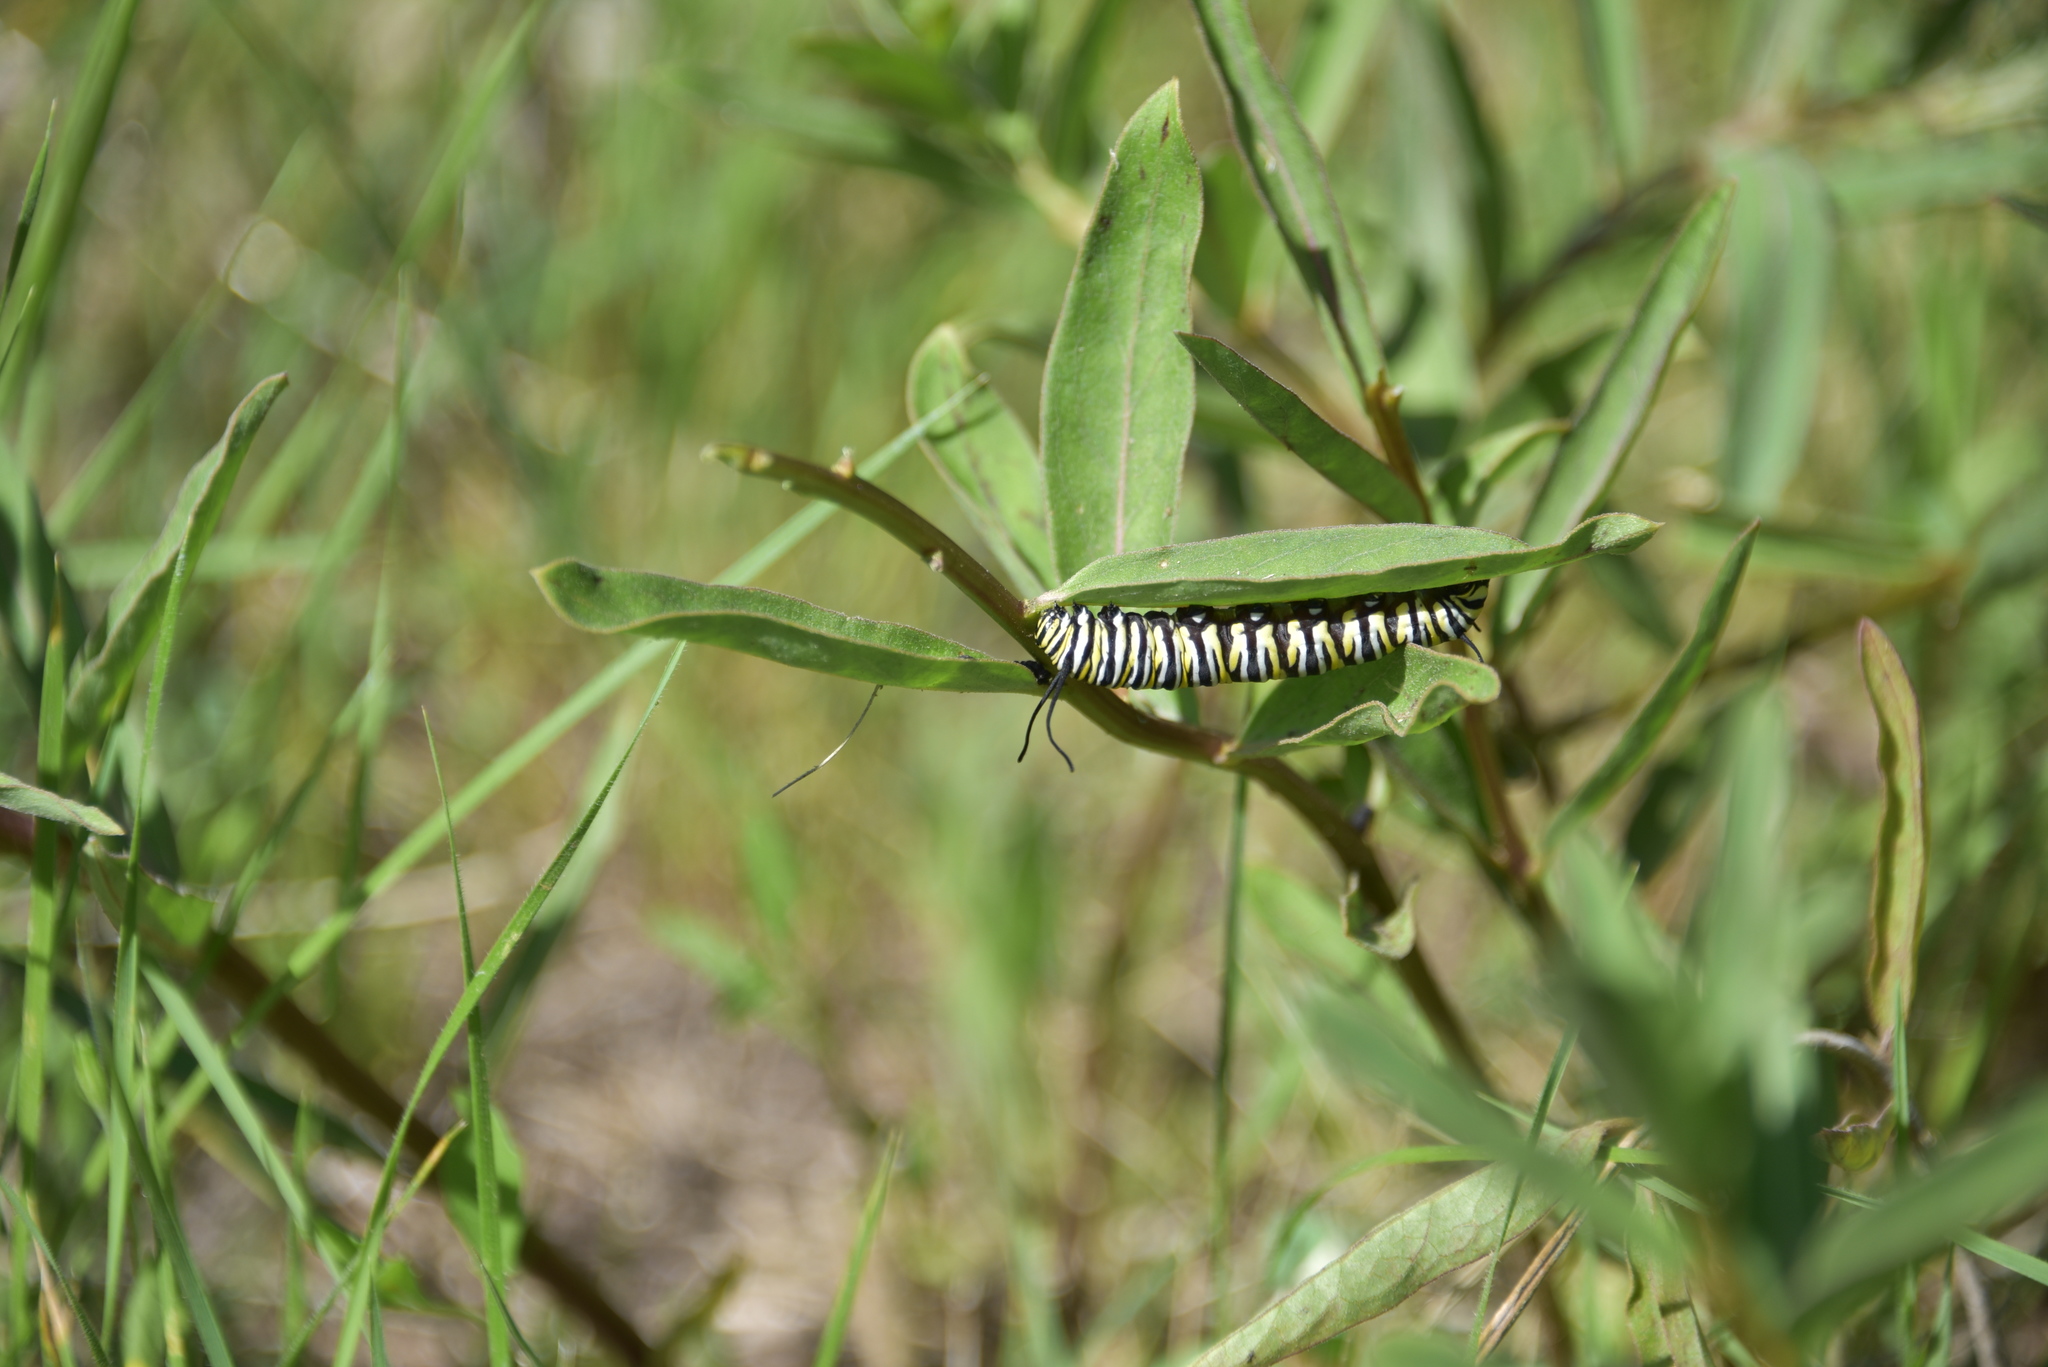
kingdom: Animalia
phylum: Arthropoda
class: Insecta
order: Lepidoptera
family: Nymphalidae
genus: Danaus
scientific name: Danaus plexippus
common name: Monarch
